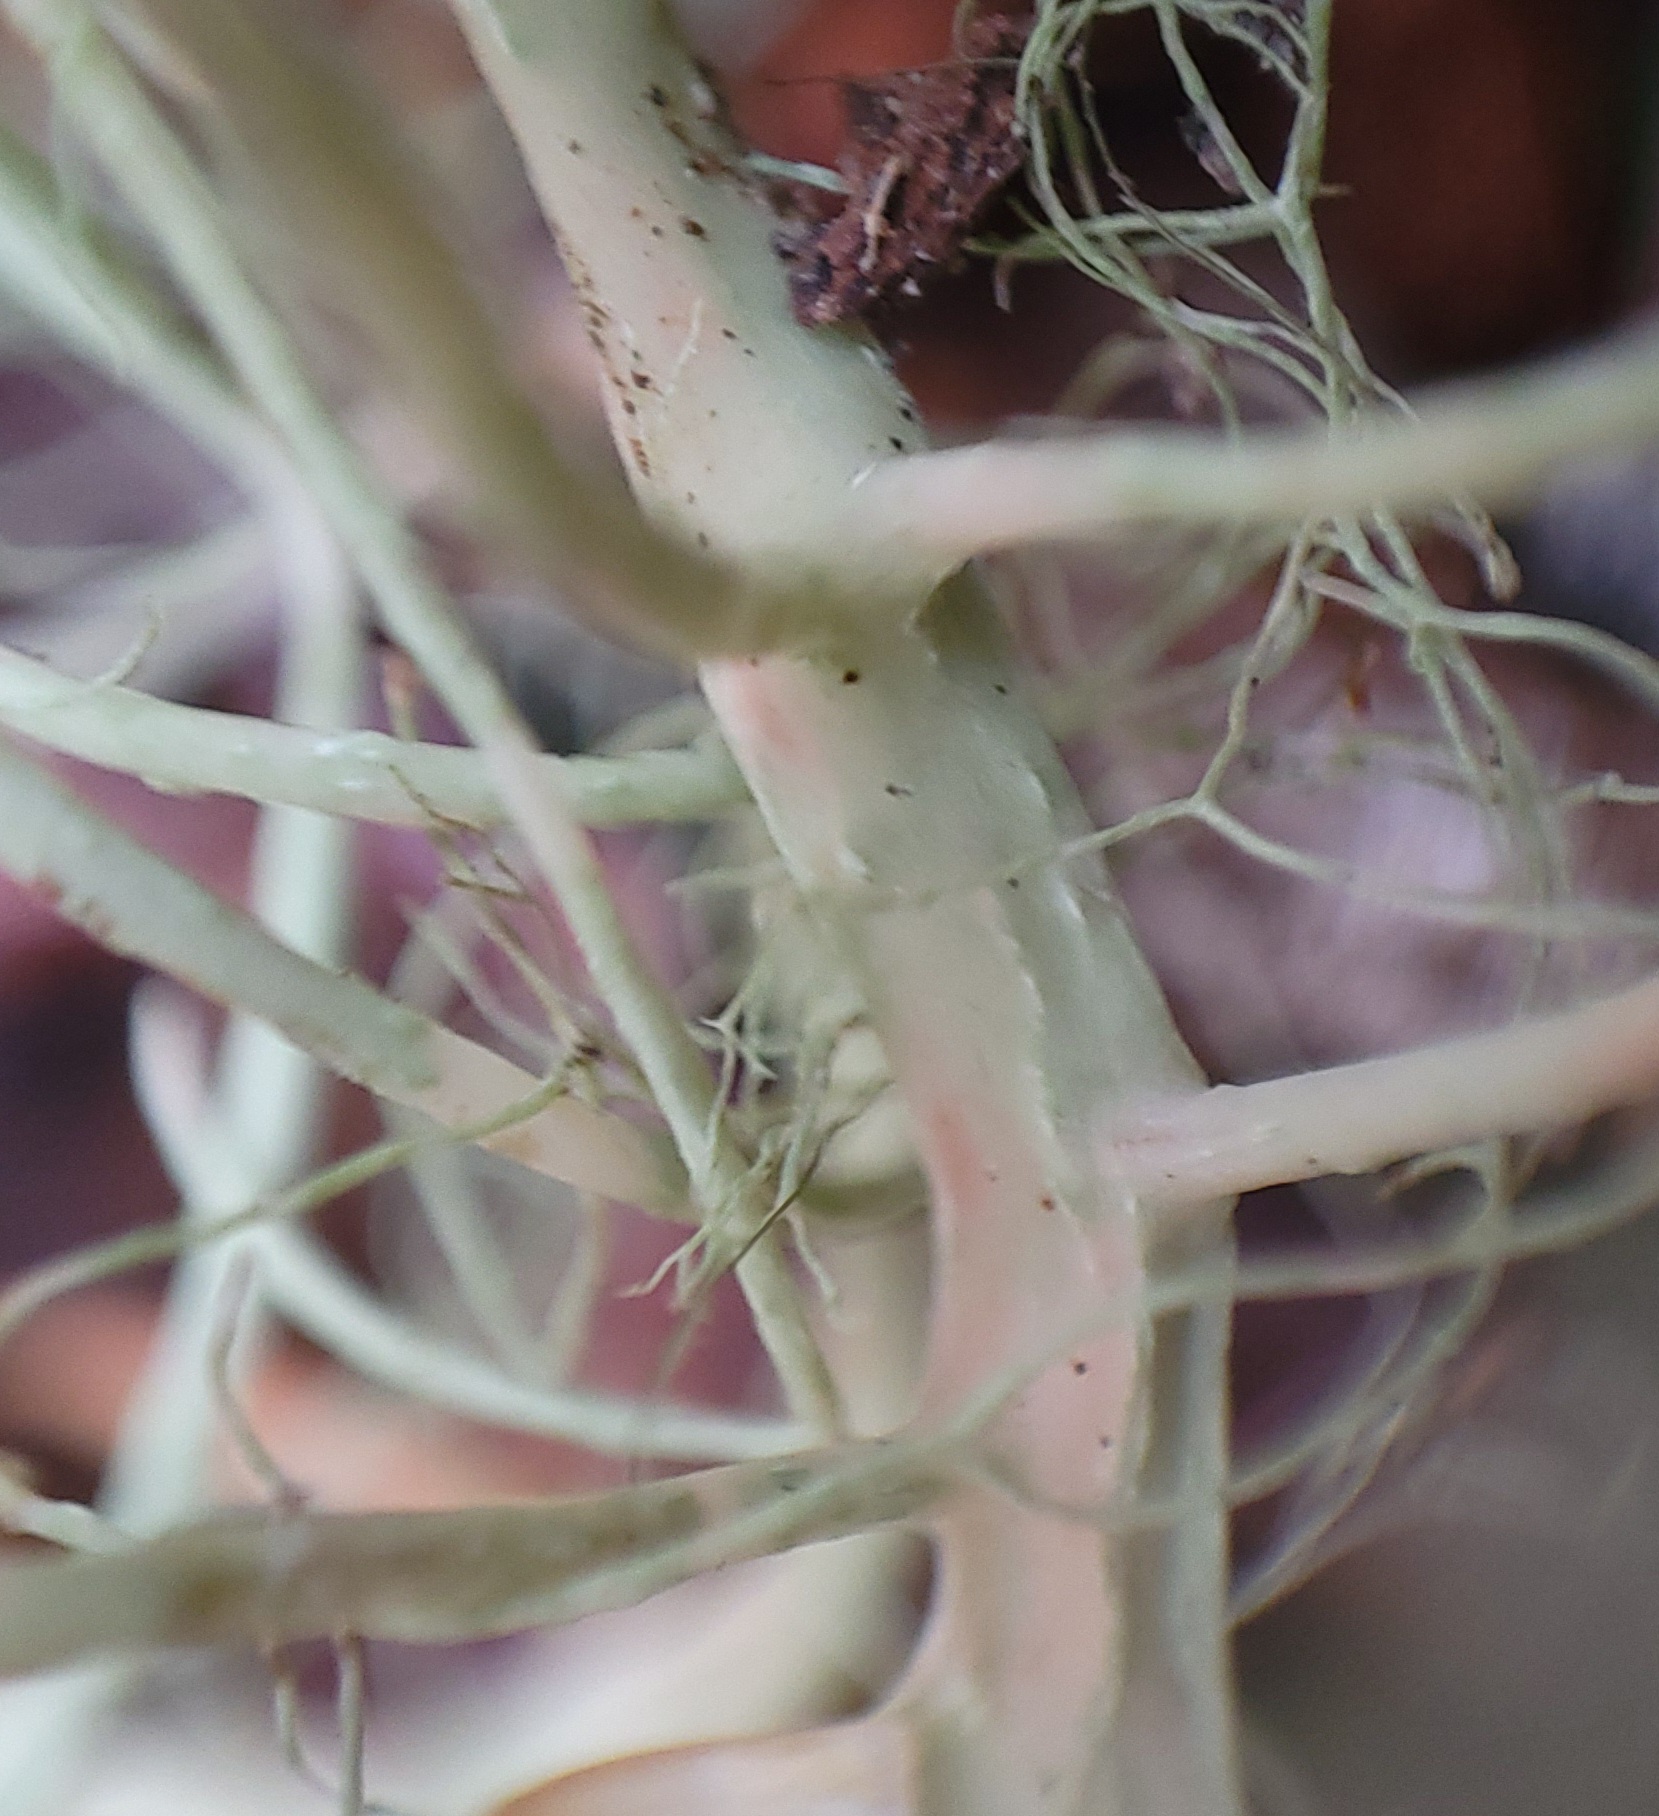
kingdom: Fungi
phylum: Ascomycota
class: Lecanoromycetes
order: Lecanorales
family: Parmeliaceae
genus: Alectoria
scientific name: Alectoria sarmentosa
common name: Witch's hair
